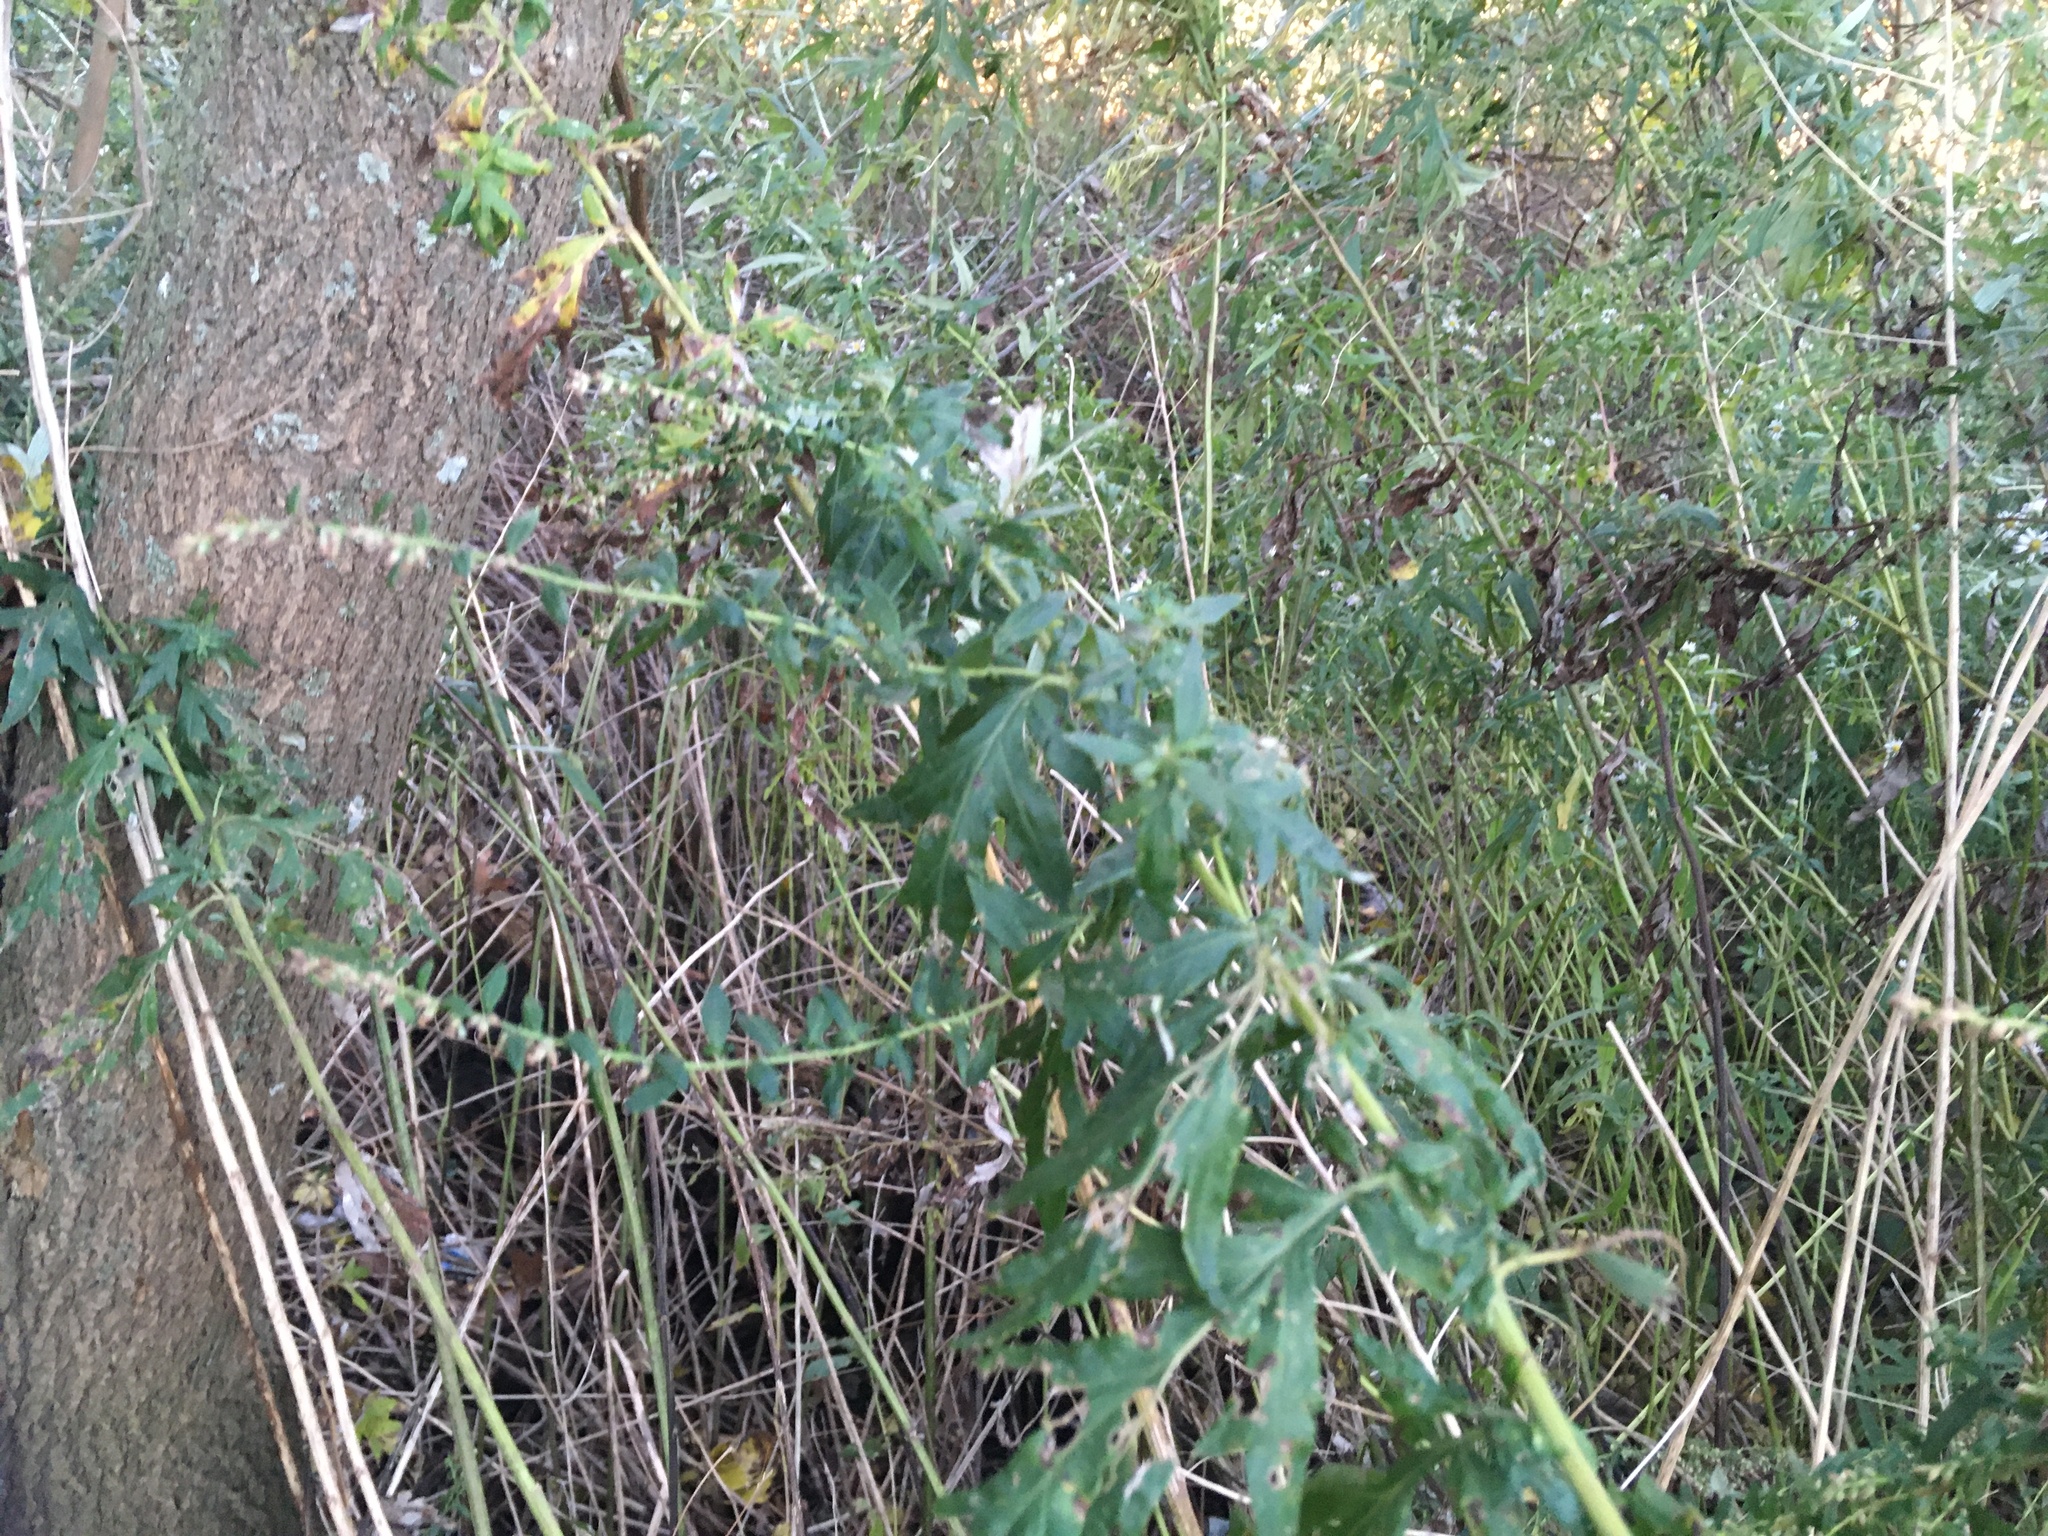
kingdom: Plantae
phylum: Tracheophyta
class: Magnoliopsida
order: Asterales
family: Asteraceae
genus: Artemisia
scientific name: Artemisia vulgaris
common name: Mugwort
